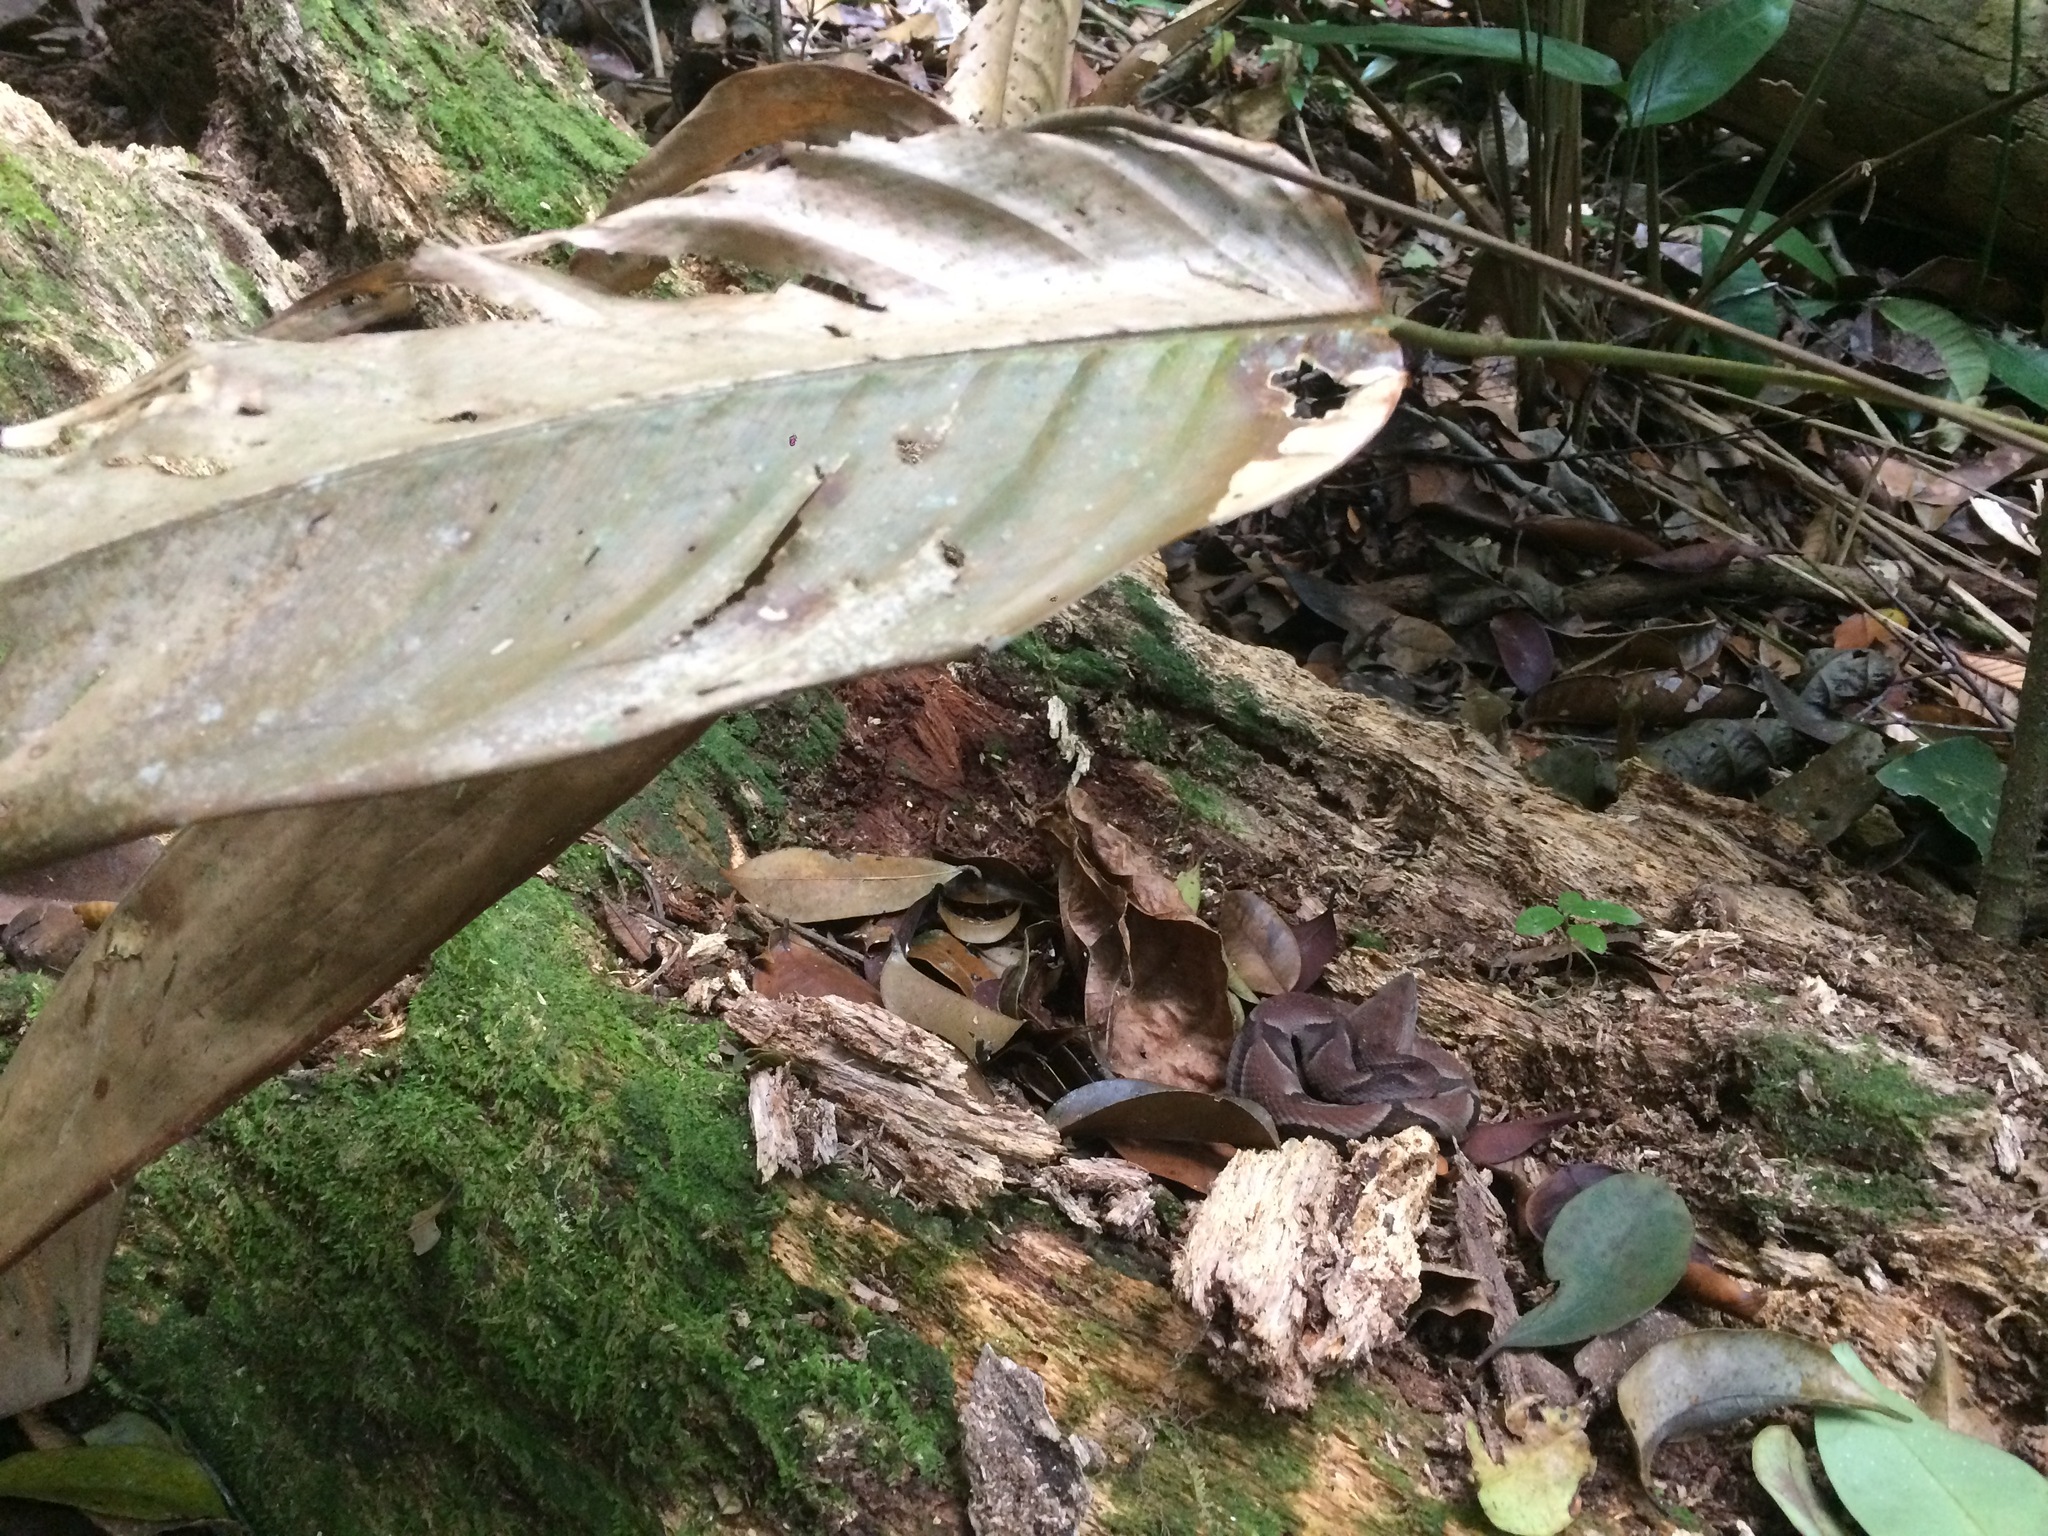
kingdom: Animalia
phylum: Chordata
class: Squamata
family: Viperidae
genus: Bothrops
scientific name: Bothrops muriciensis
